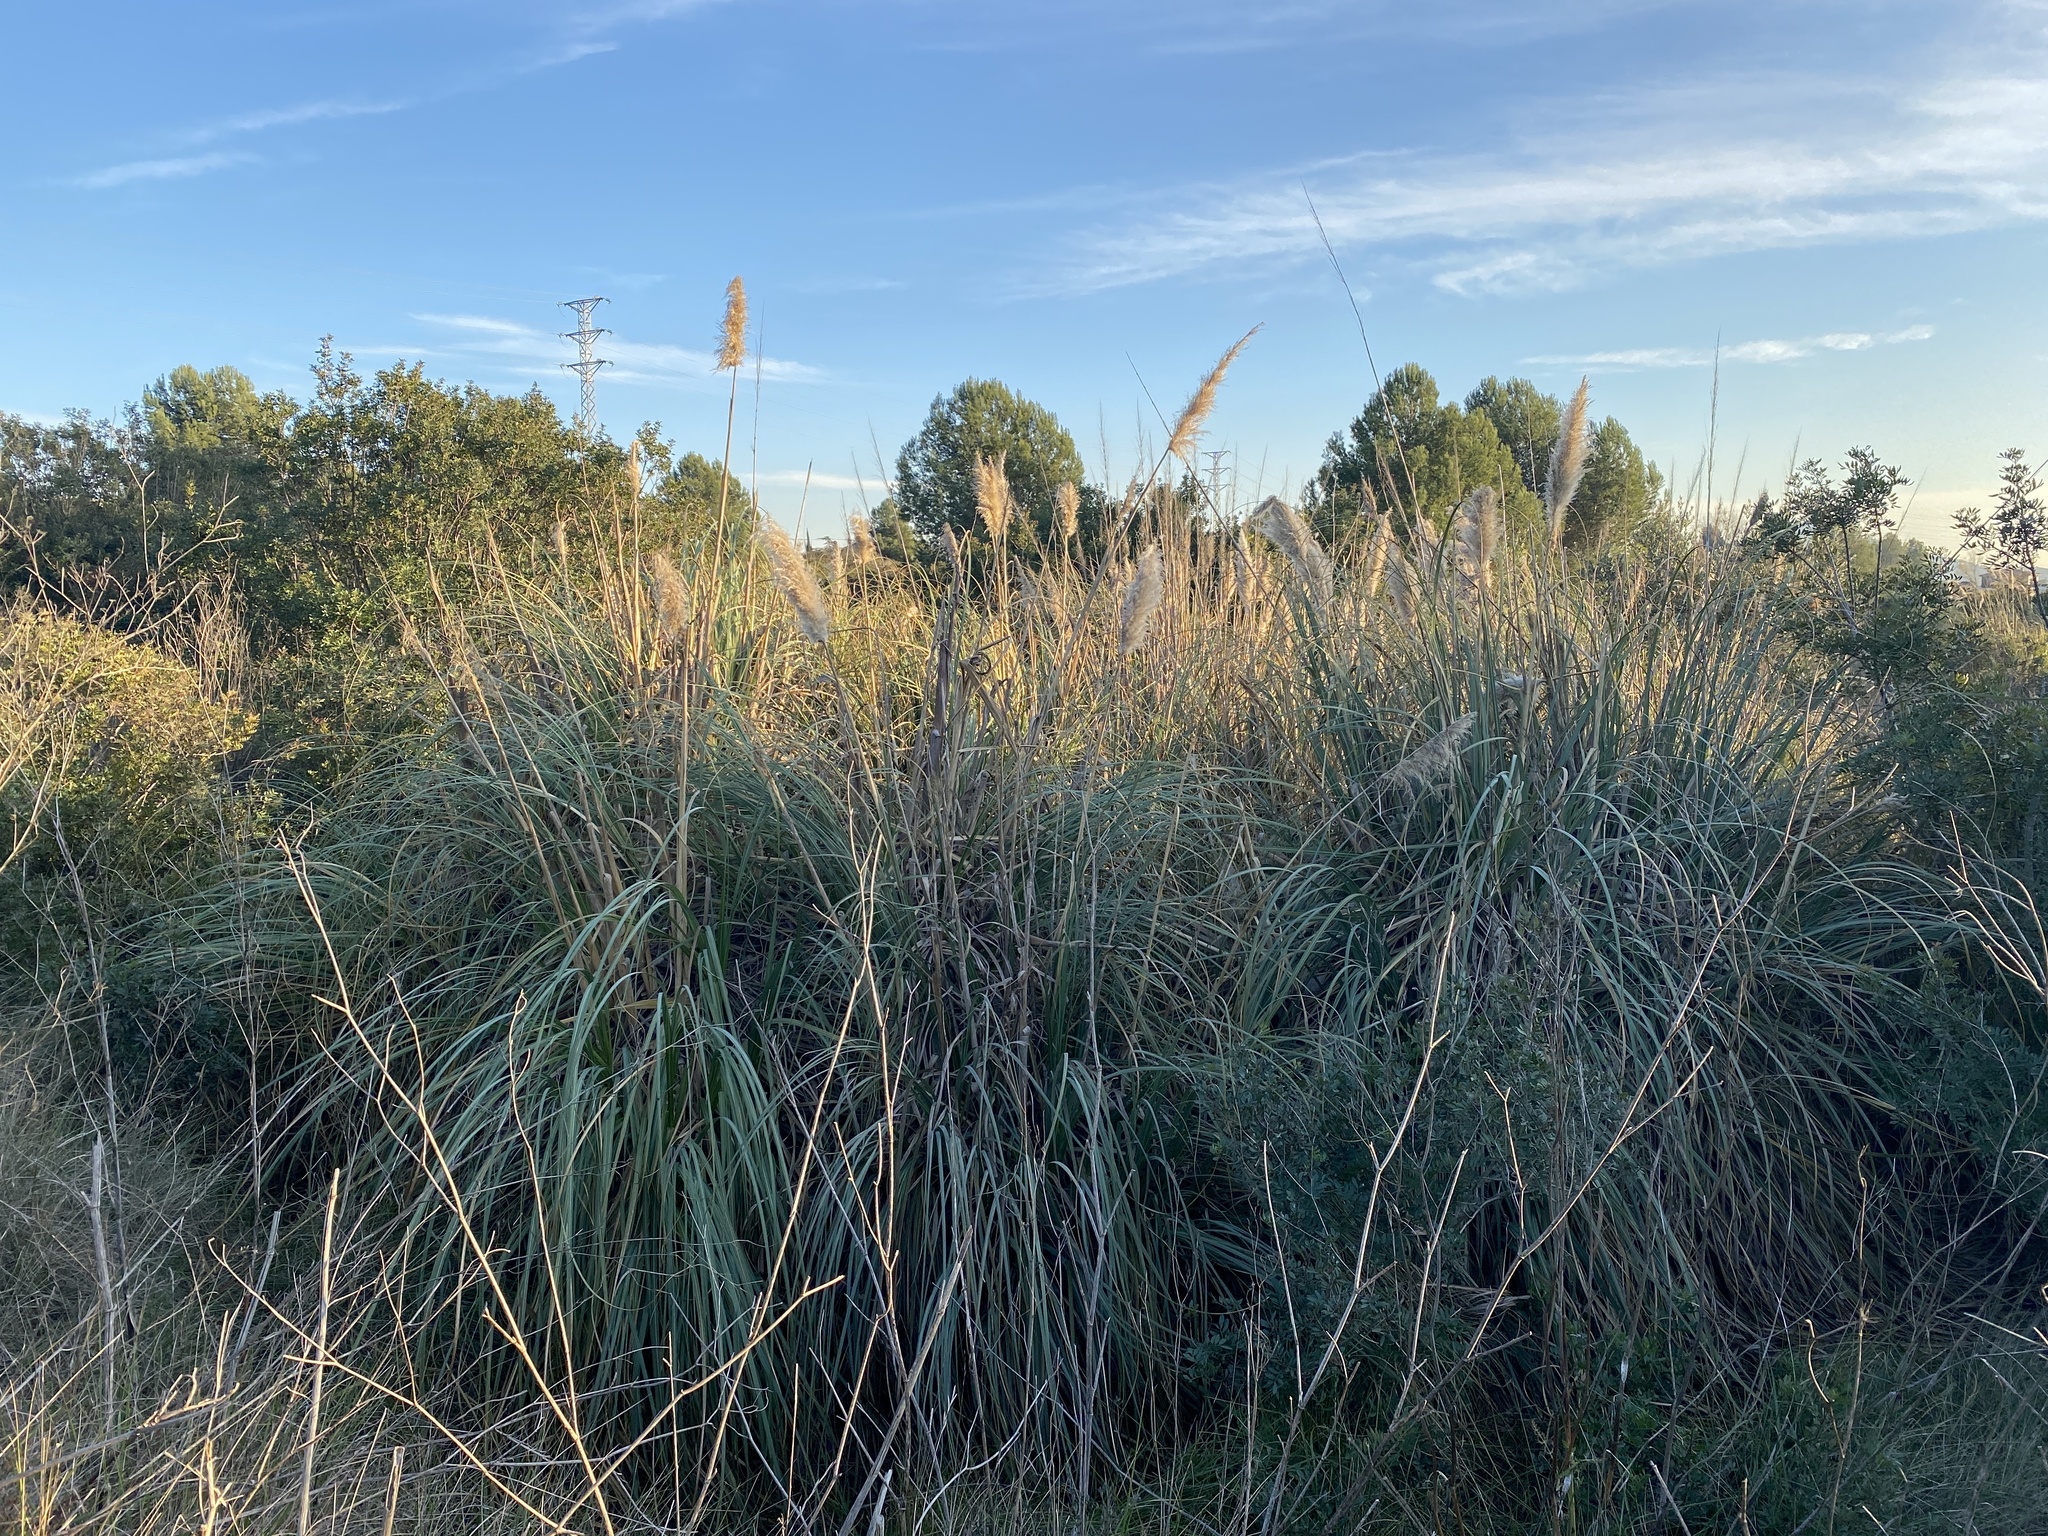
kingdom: Plantae
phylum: Tracheophyta
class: Liliopsida
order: Poales
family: Poaceae
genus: Cortaderia
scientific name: Cortaderia selloana
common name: Uruguayan pampas grass
